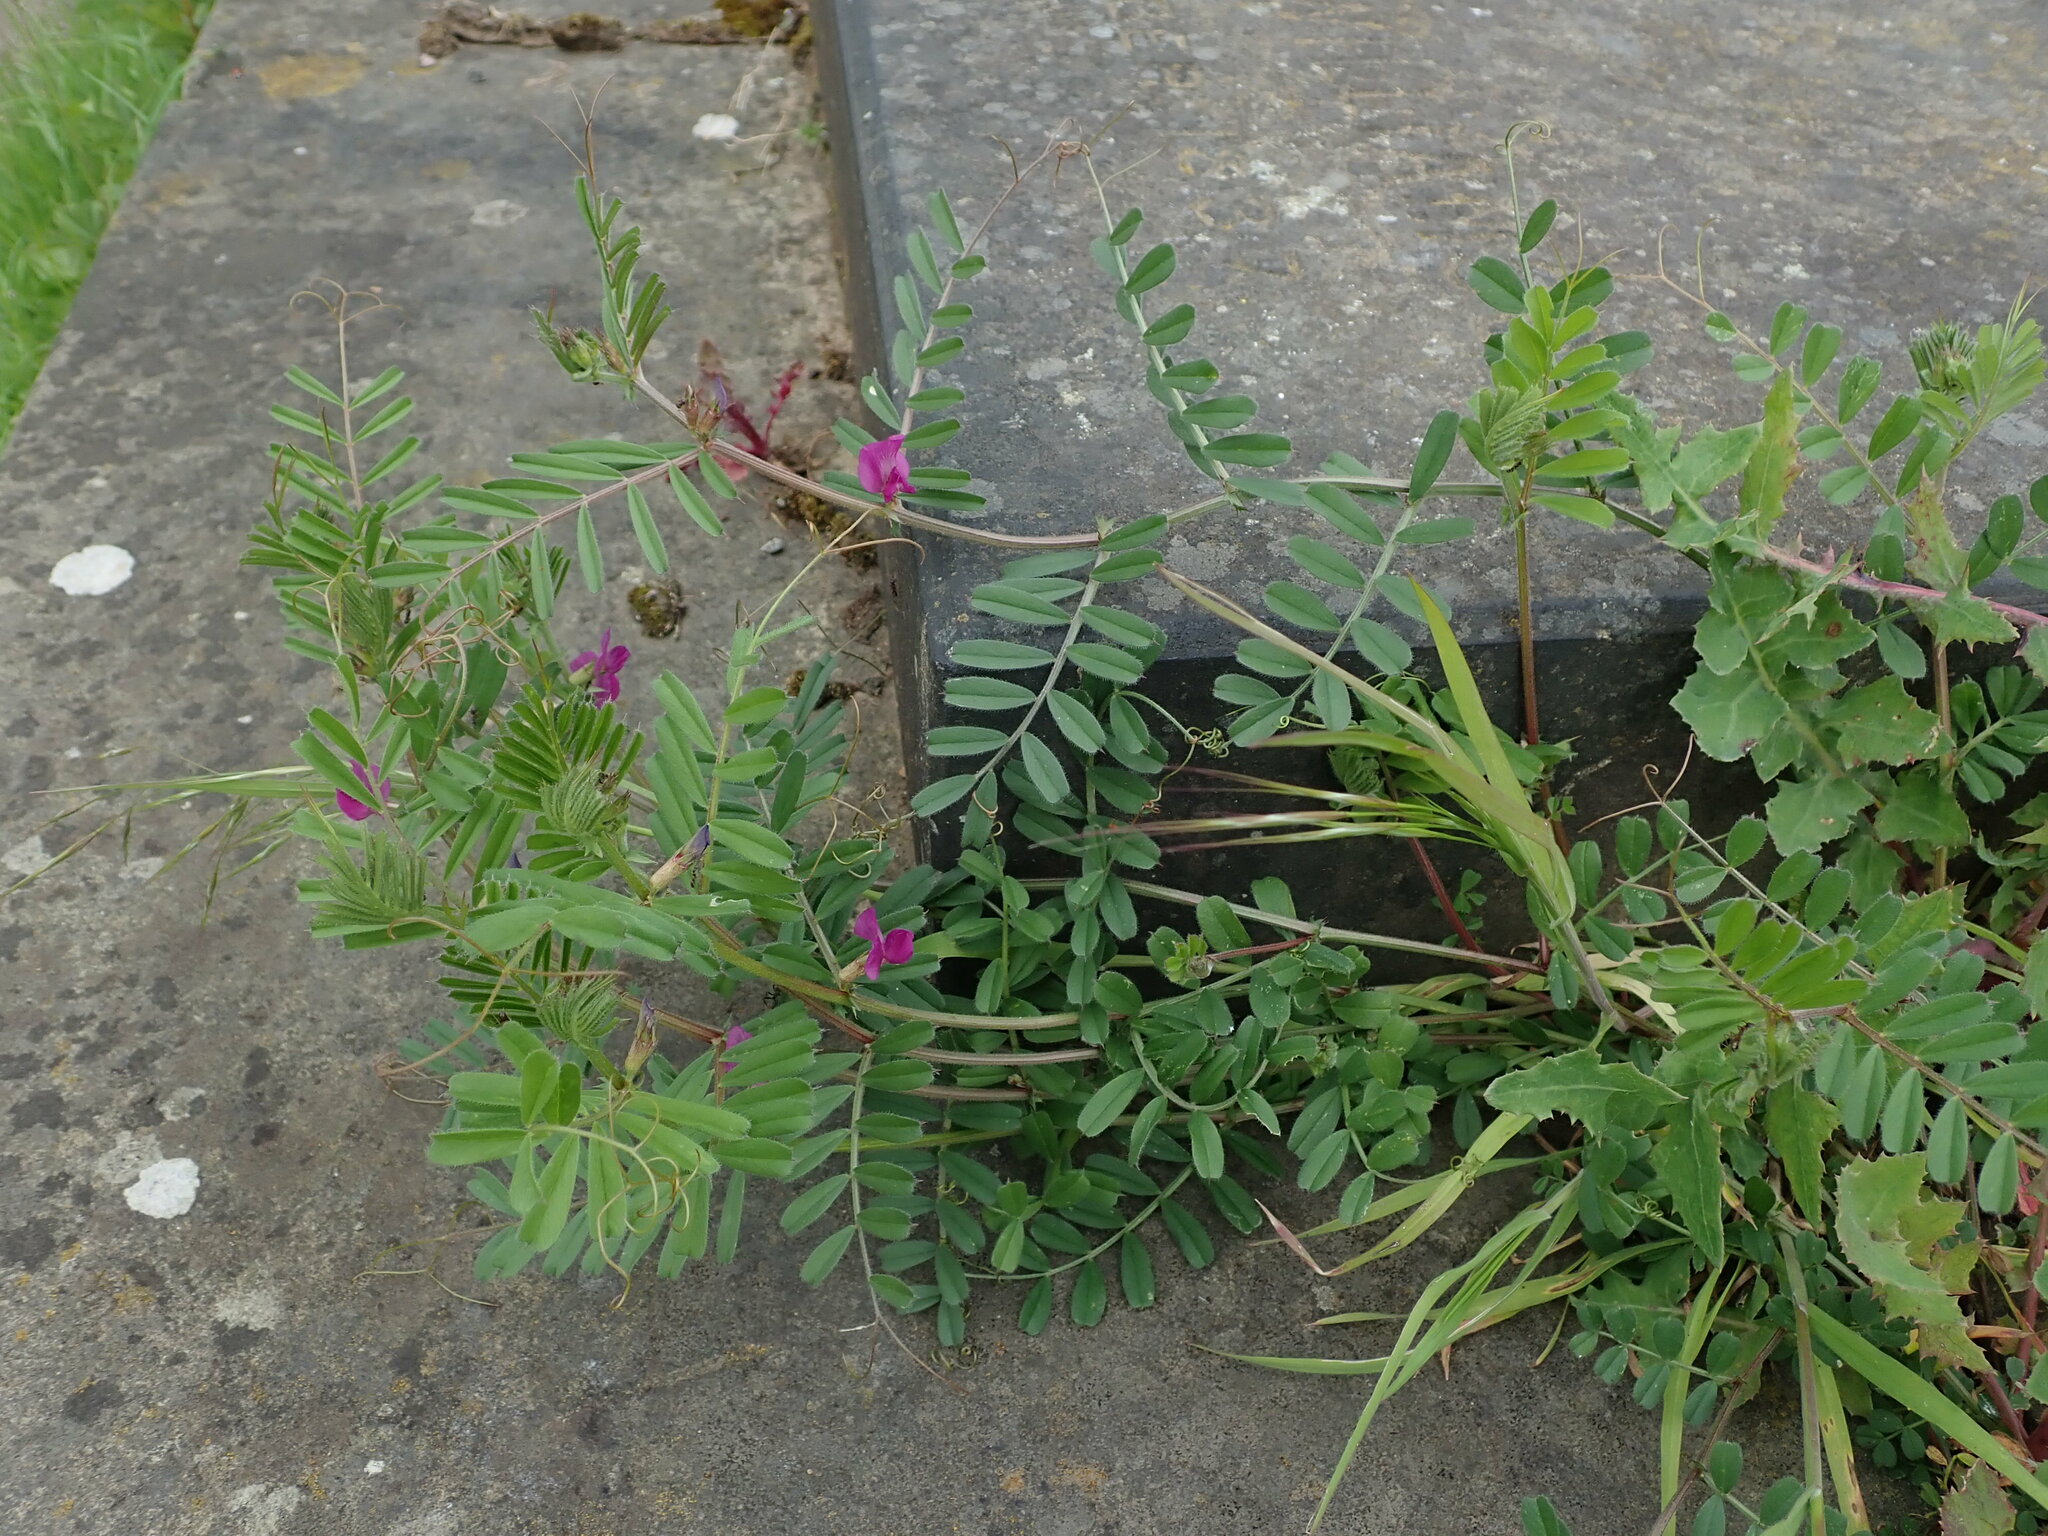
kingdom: Plantae
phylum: Tracheophyta
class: Magnoliopsida
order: Fabales
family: Fabaceae
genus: Vicia
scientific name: Vicia sativa
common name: Garden vetch
